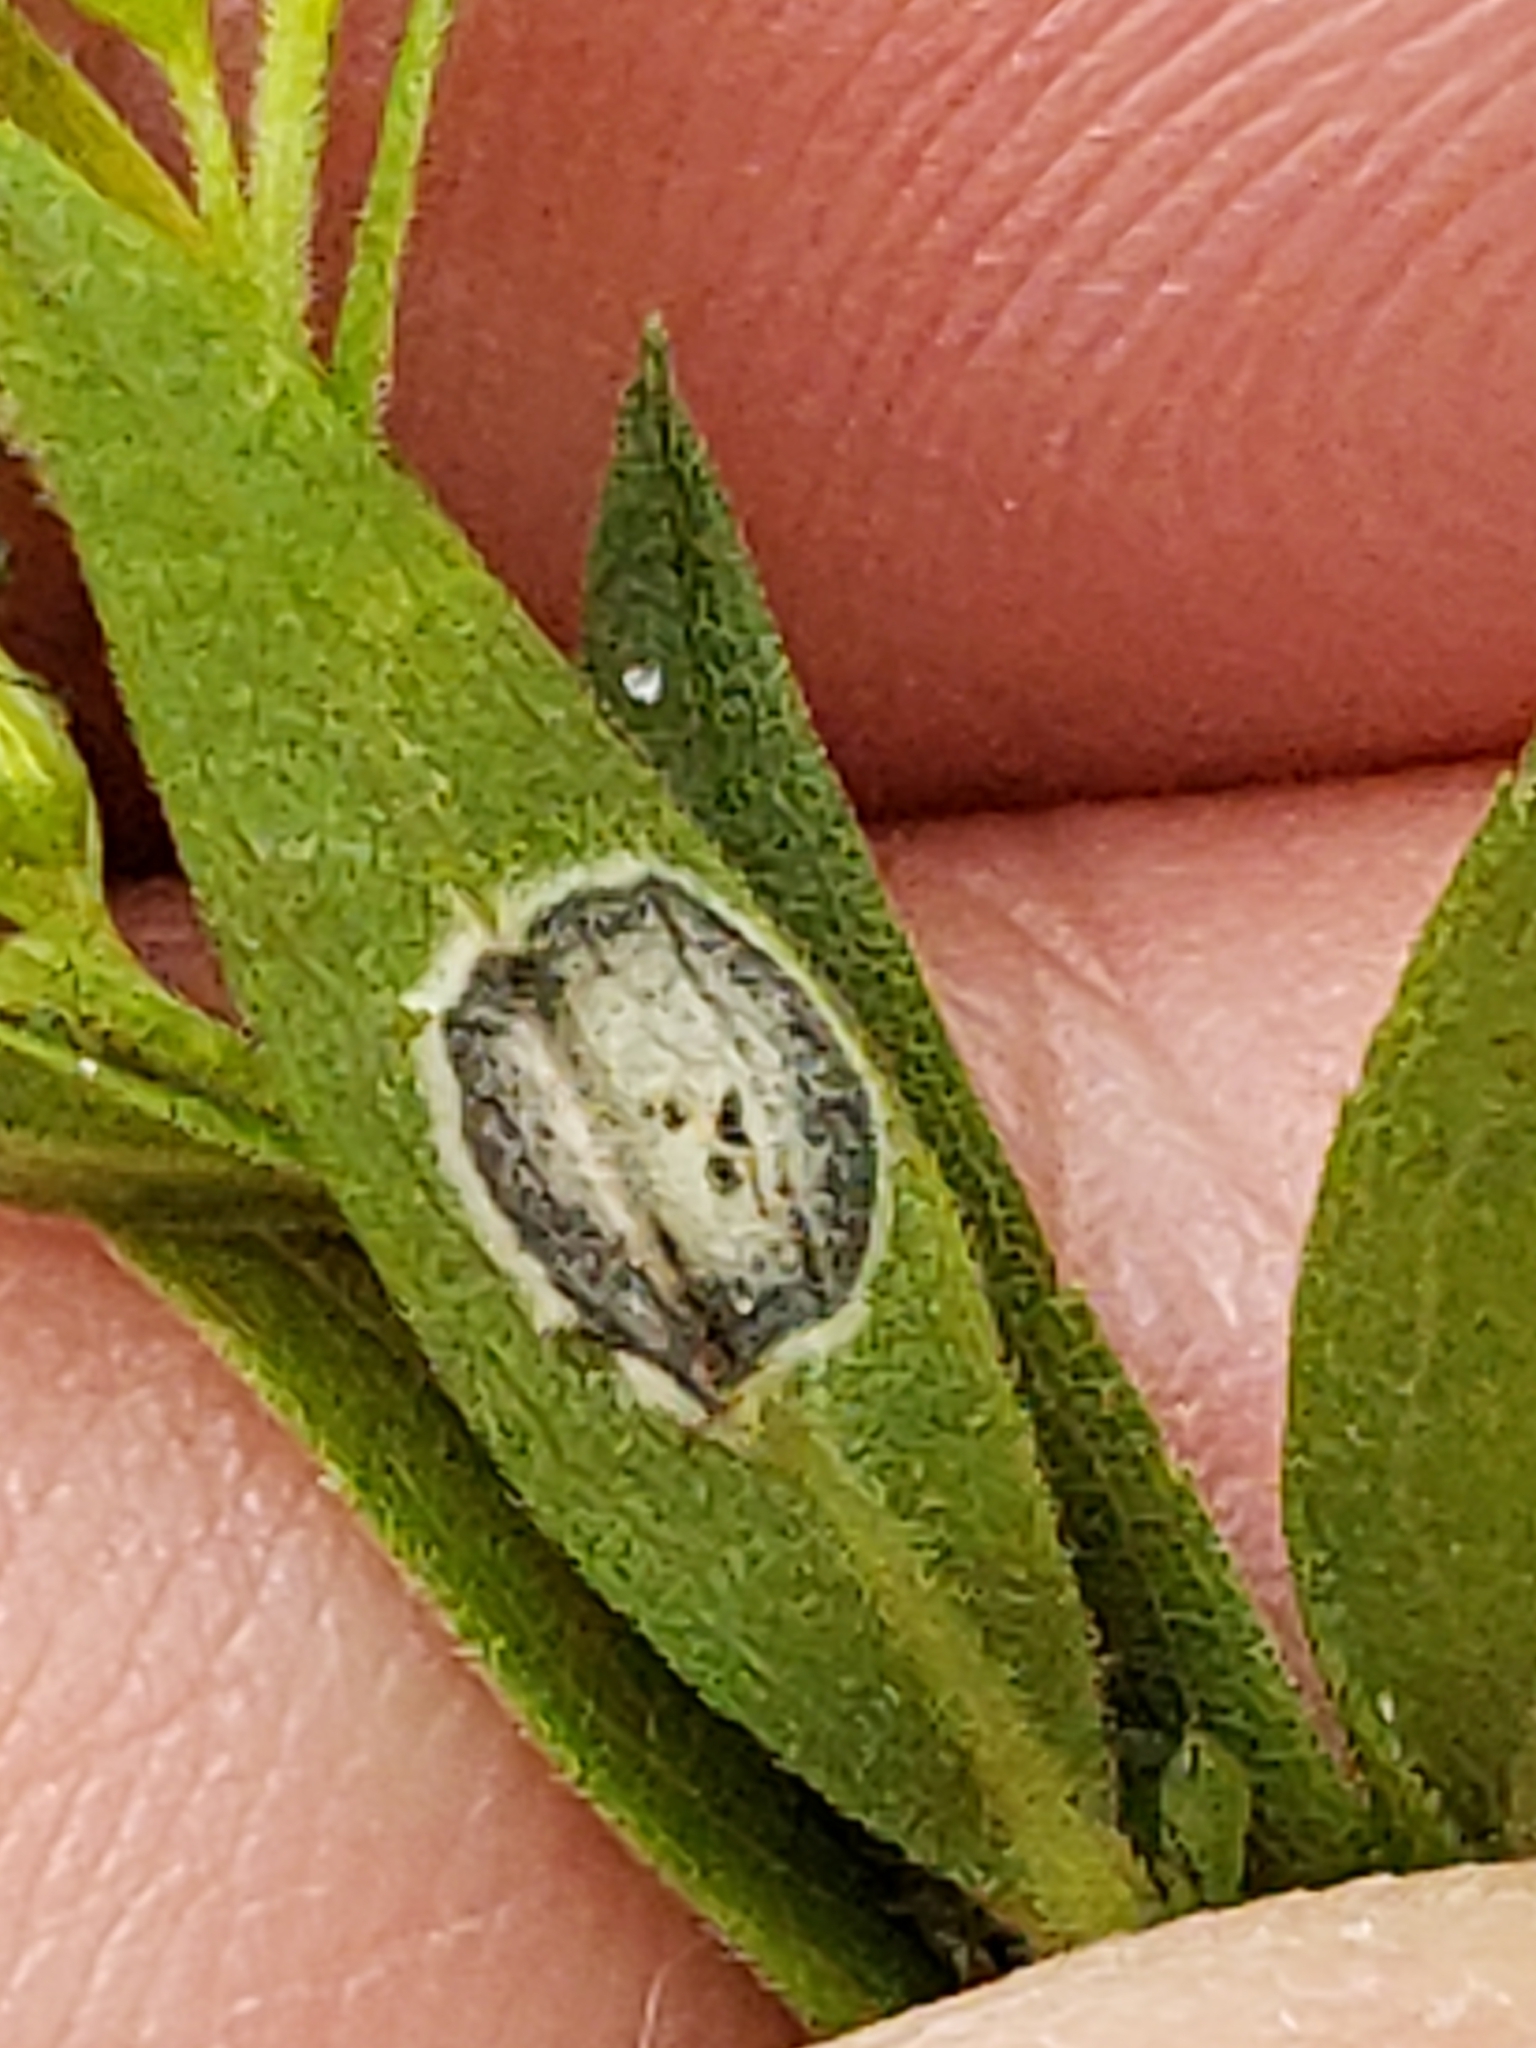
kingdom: Animalia
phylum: Arthropoda
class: Insecta
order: Diptera
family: Cecidomyiidae
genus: Asteromyia
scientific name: Asteromyia carbonifera
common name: Carbonifera goldenrod gall midge
